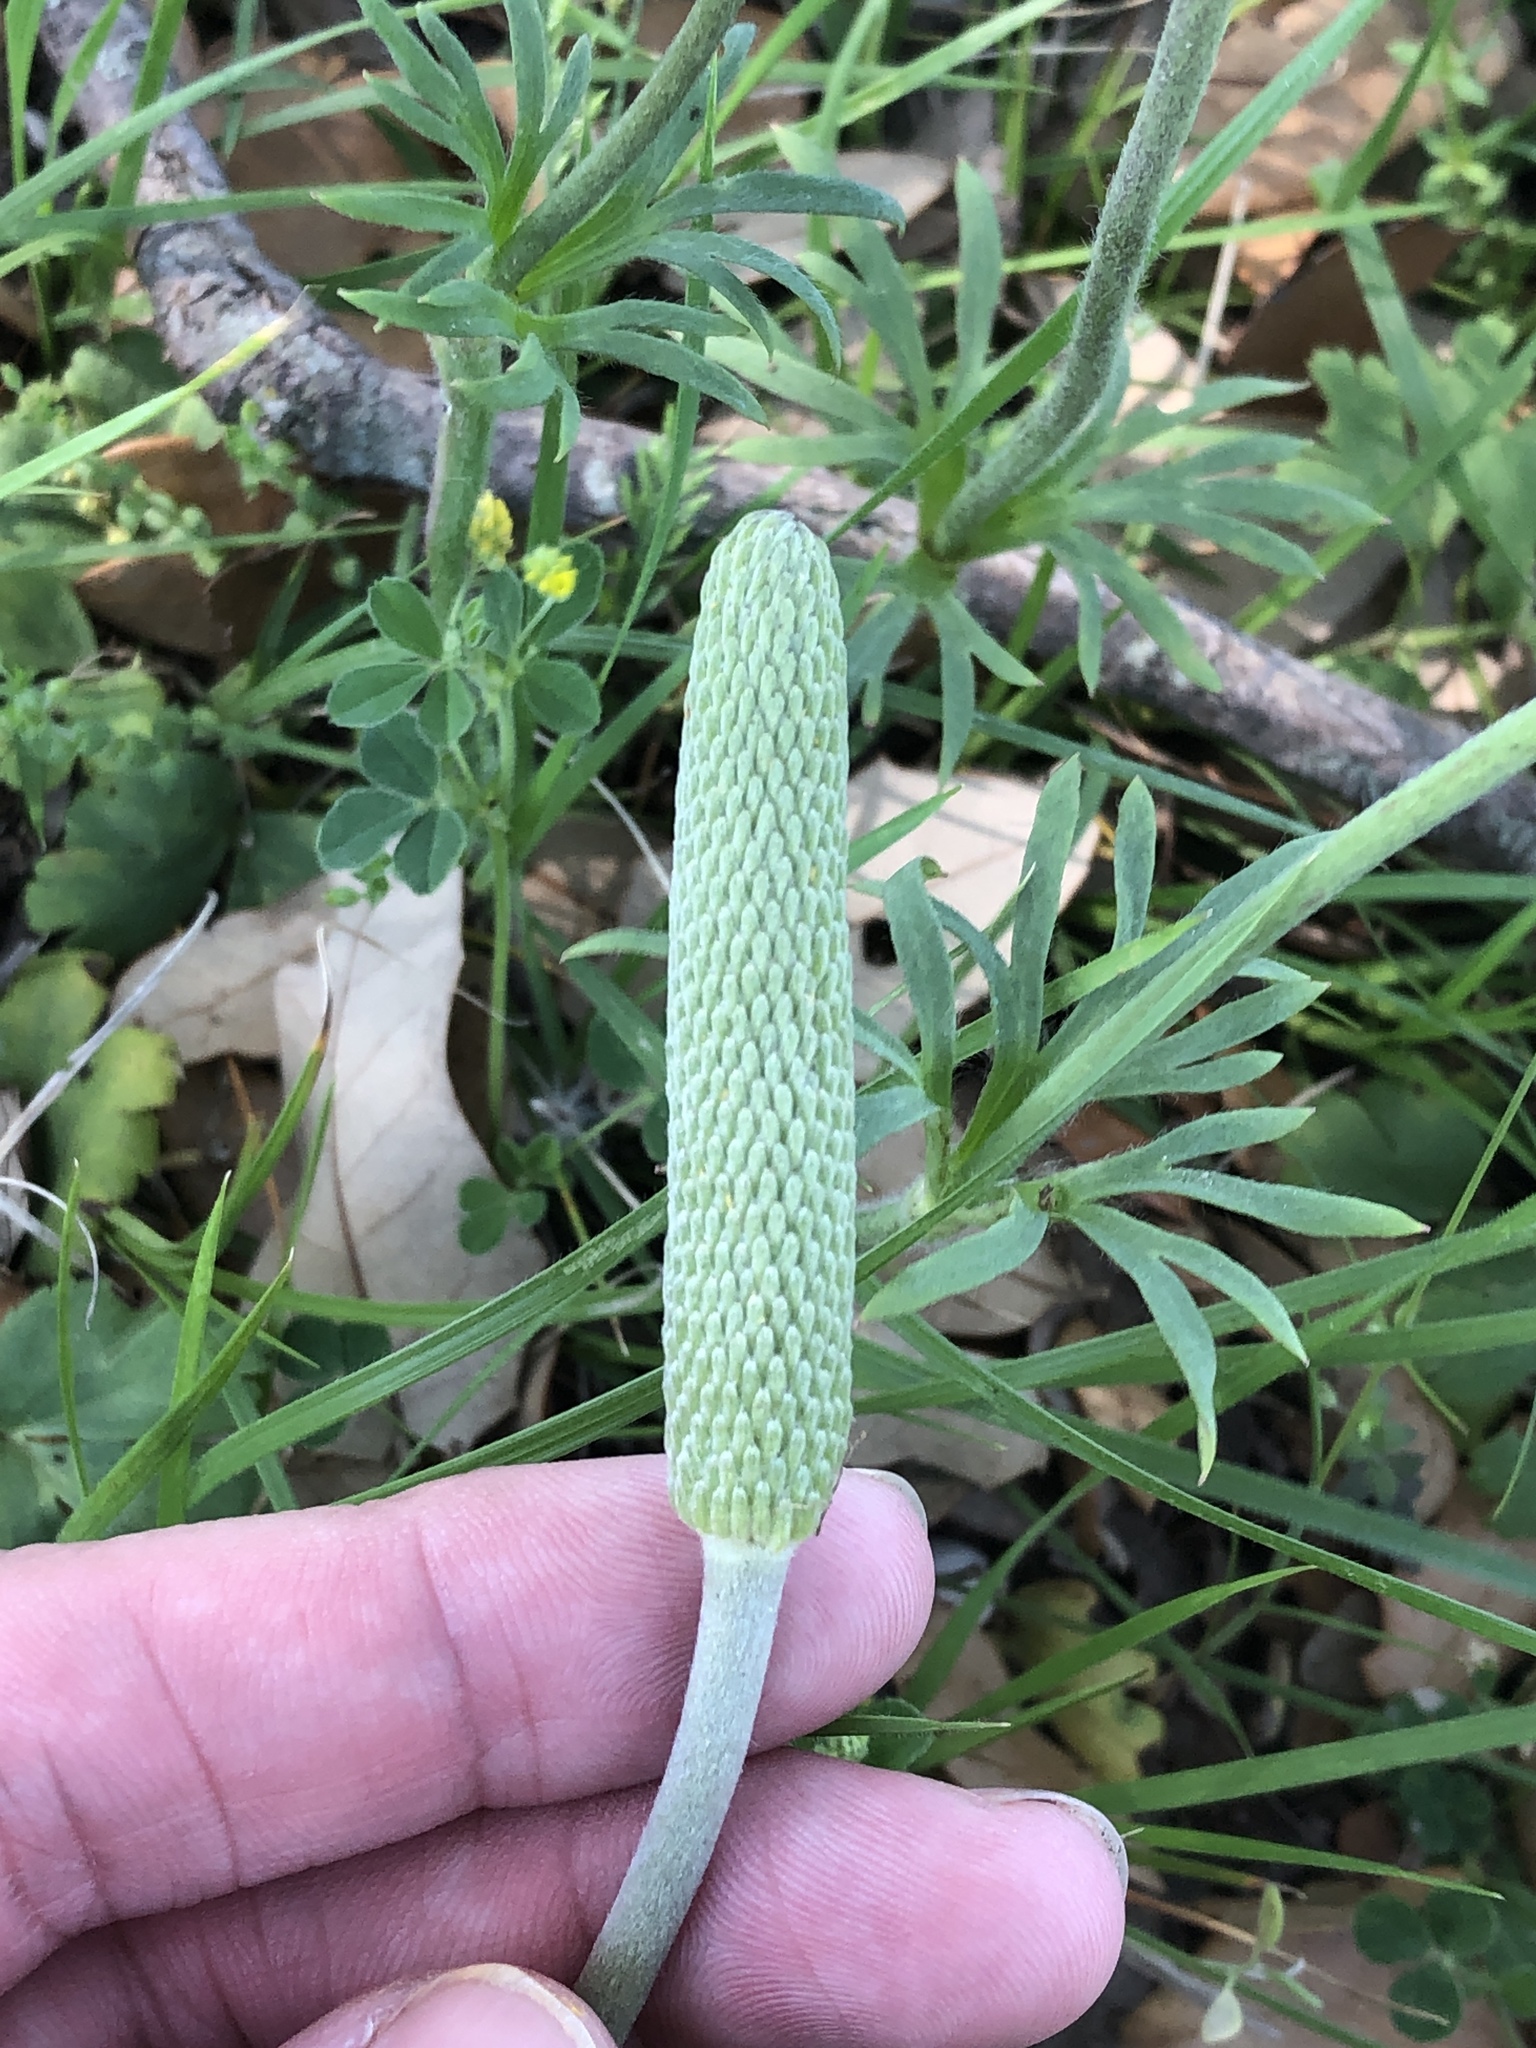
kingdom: Plantae
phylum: Tracheophyta
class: Magnoliopsida
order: Ranunculales
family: Ranunculaceae
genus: Anemone
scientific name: Anemone berlandieri
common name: Ten-petal anemone
